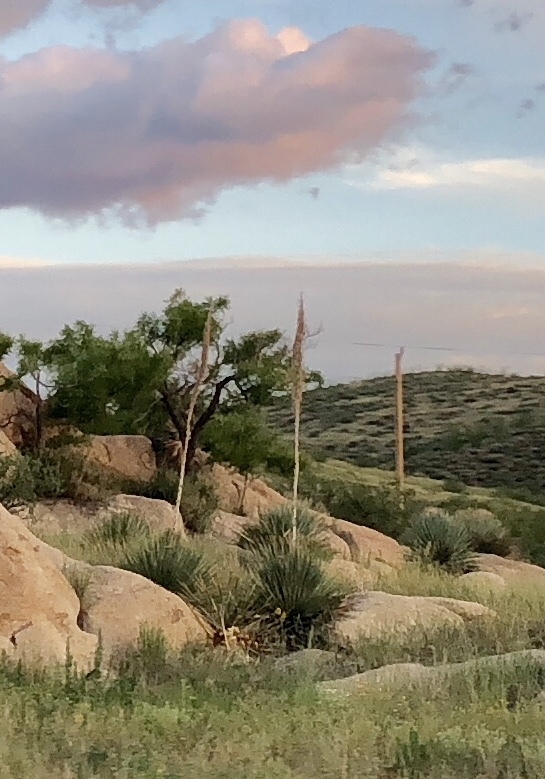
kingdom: Plantae
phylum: Tracheophyta
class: Liliopsida
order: Asparagales
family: Asparagaceae
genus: Dasylirion
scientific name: Dasylirion wheeleri
